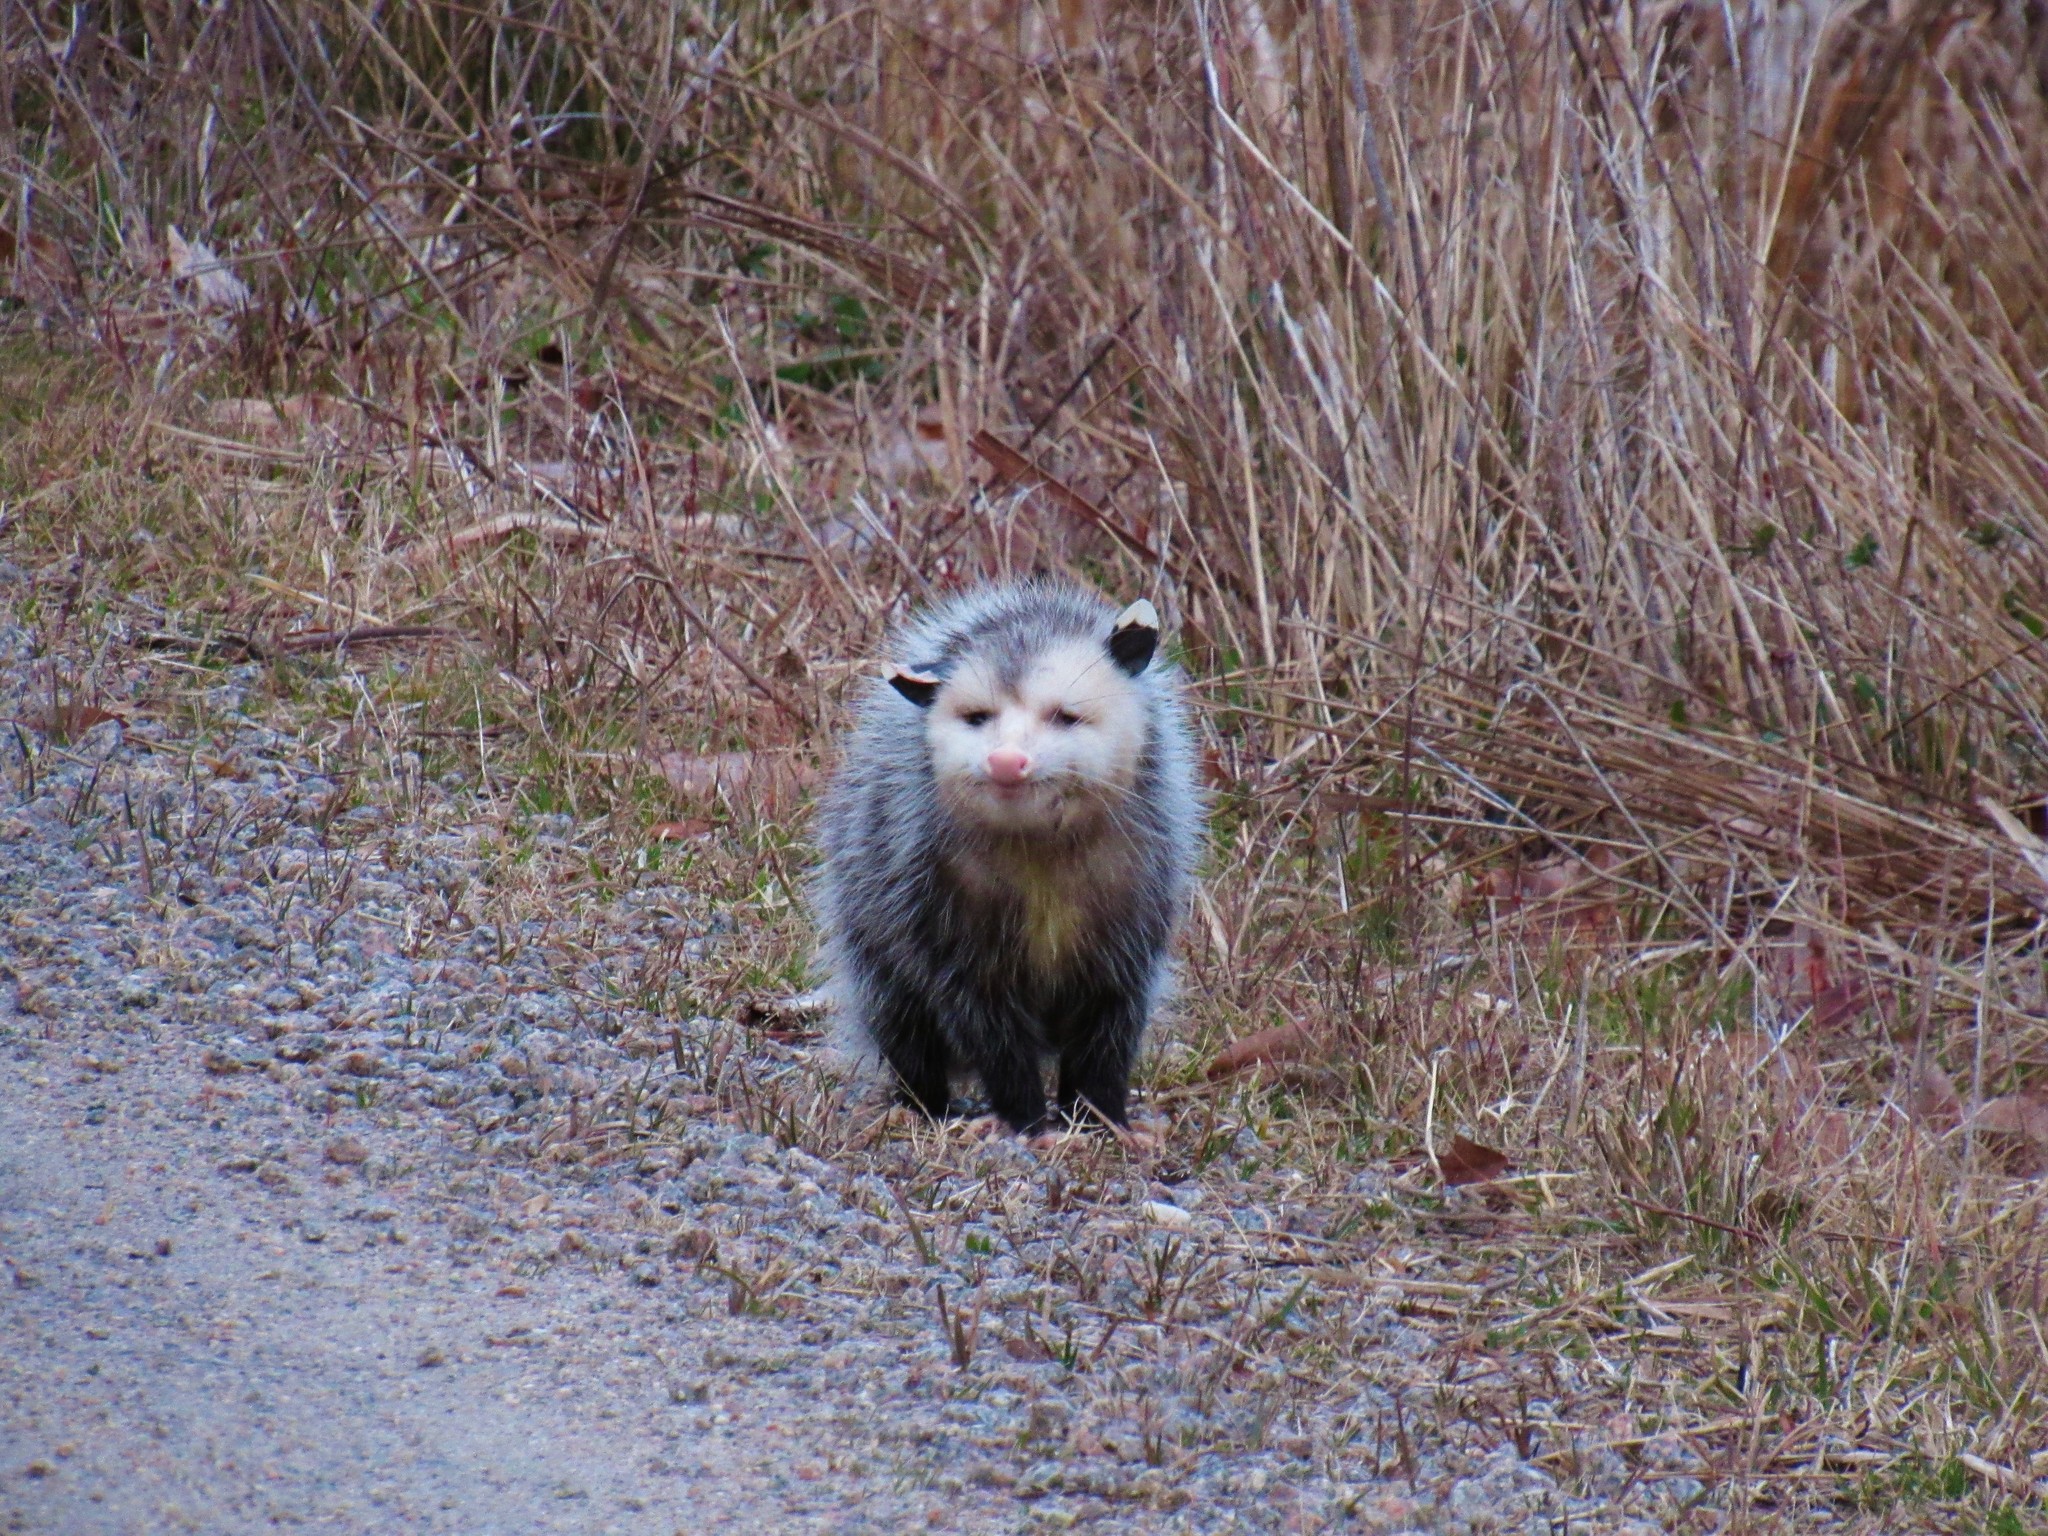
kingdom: Animalia
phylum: Chordata
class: Mammalia
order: Didelphimorphia
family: Didelphidae
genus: Didelphis
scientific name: Didelphis virginiana
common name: Virginia opossum
